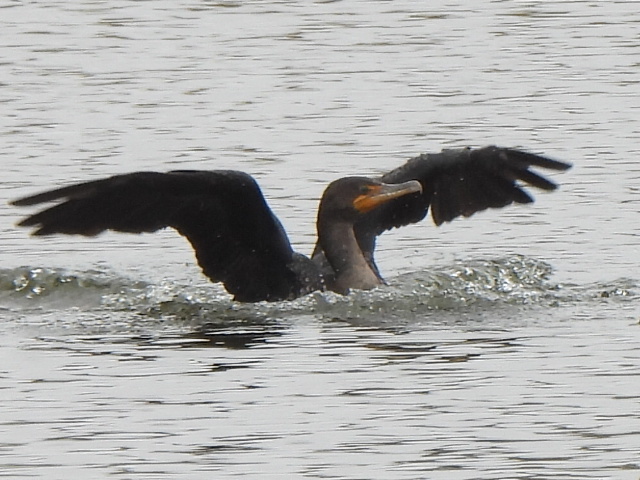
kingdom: Animalia
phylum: Chordata
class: Aves
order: Suliformes
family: Phalacrocoracidae
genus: Phalacrocorax
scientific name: Phalacrocorax auritus
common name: Double-crested cormorant
